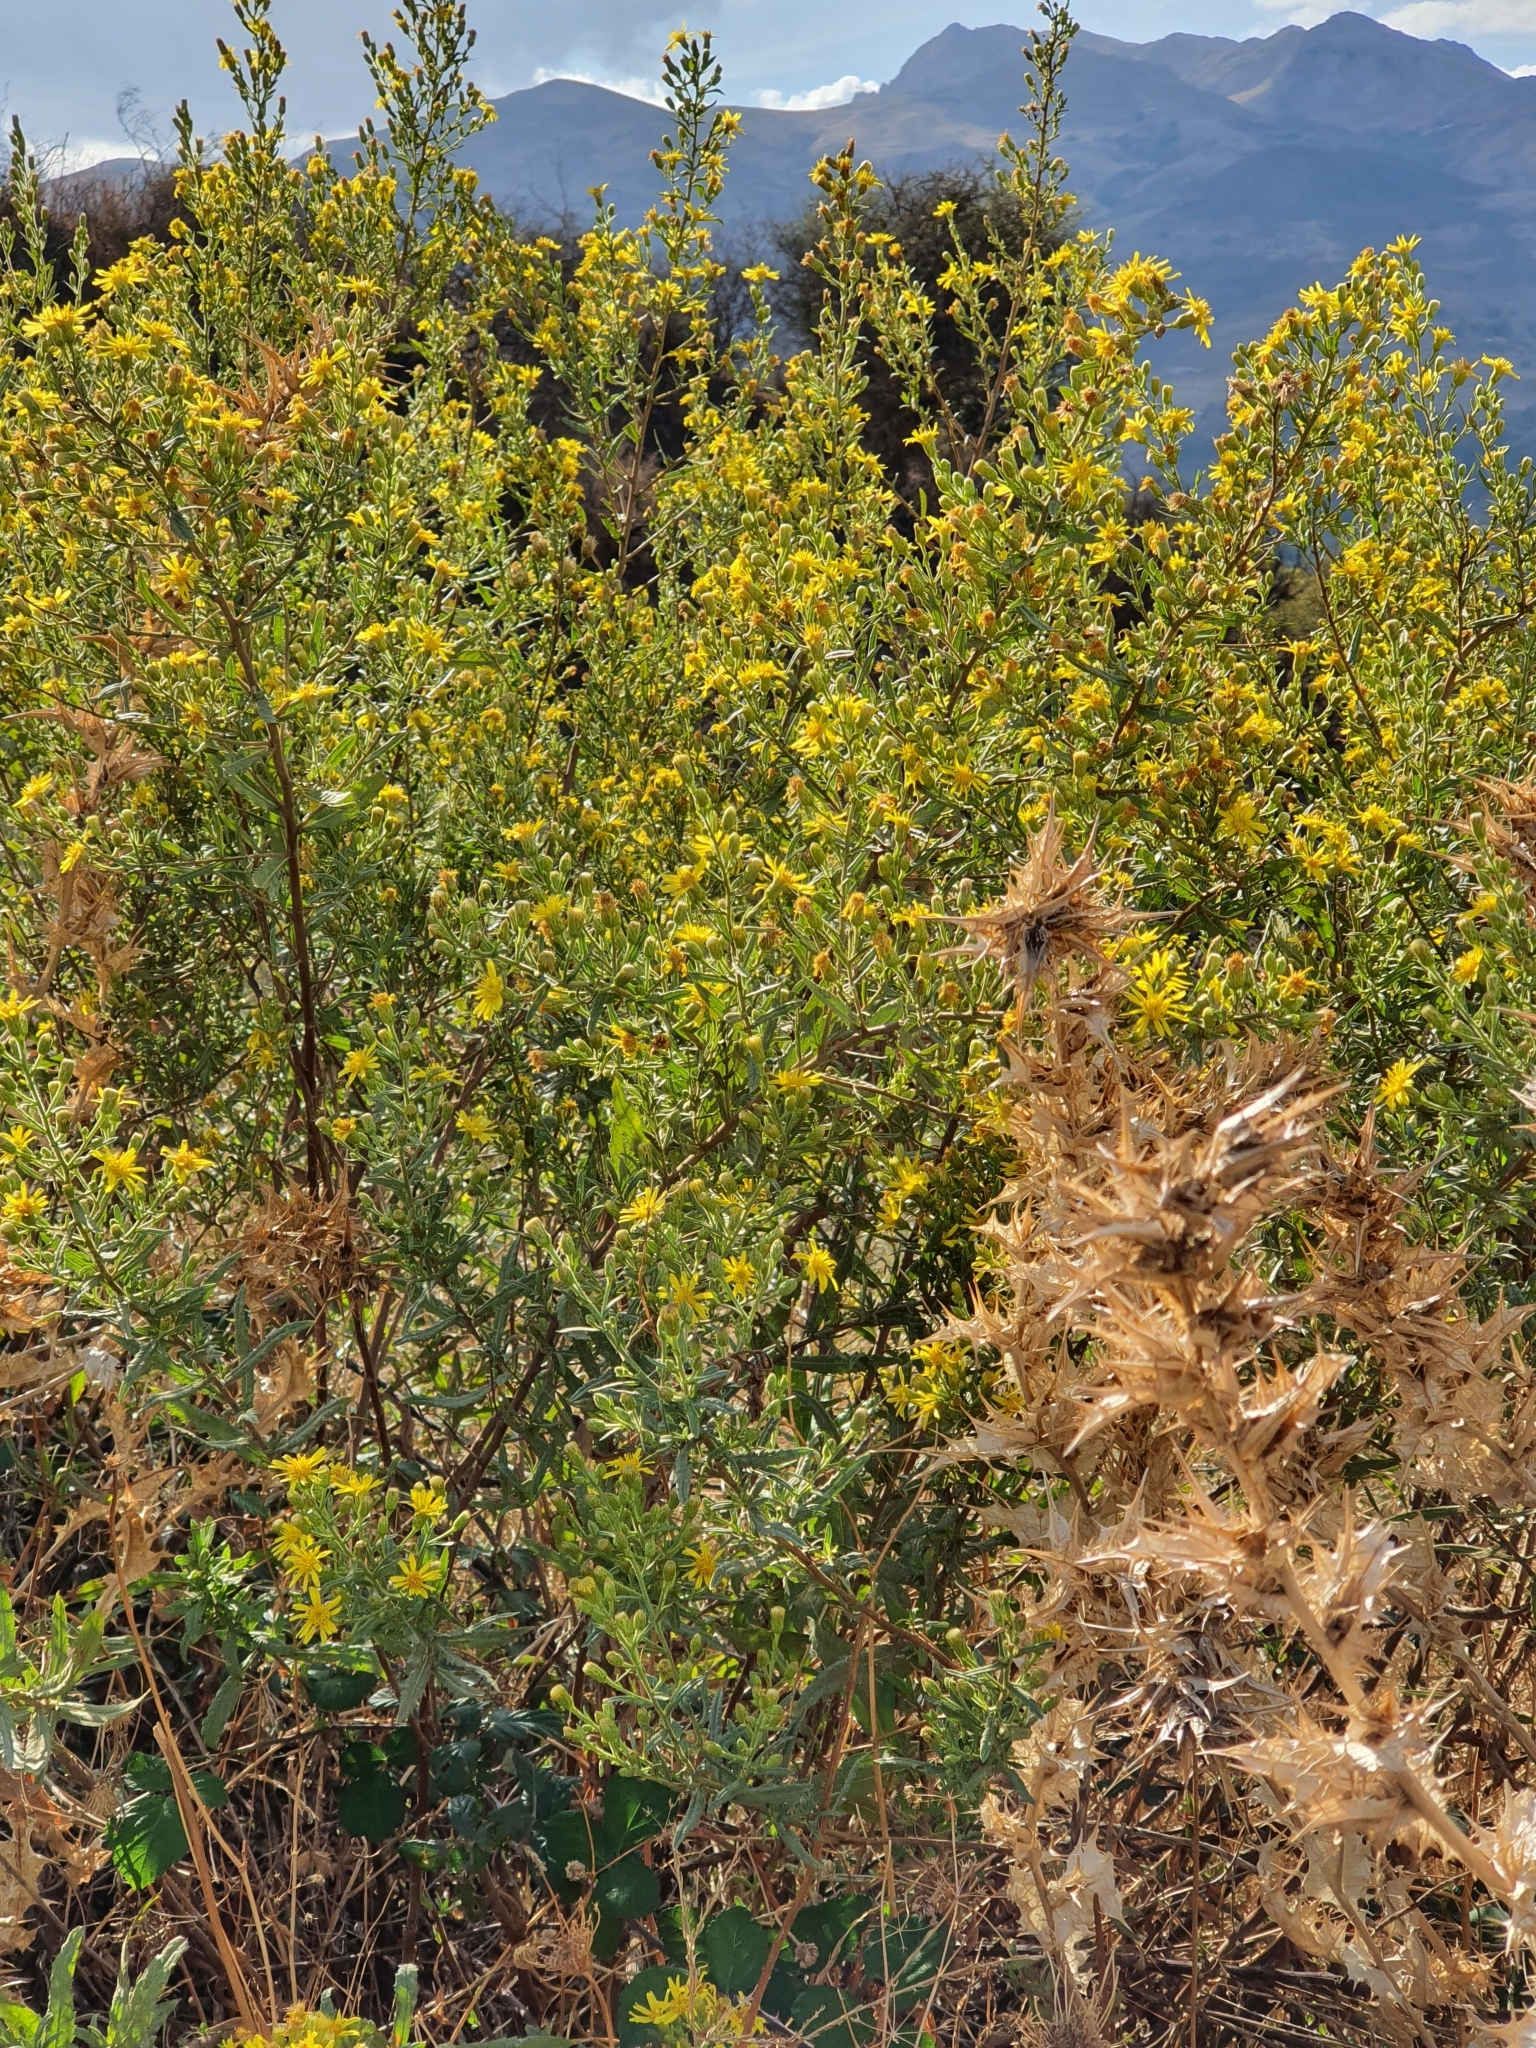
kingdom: Plantae
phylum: Tracheophyta
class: Magnoliopsida
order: Asterales
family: Asteraceae
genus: Dittrichia
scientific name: Dittrichia viscosa
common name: Woody fleabane
